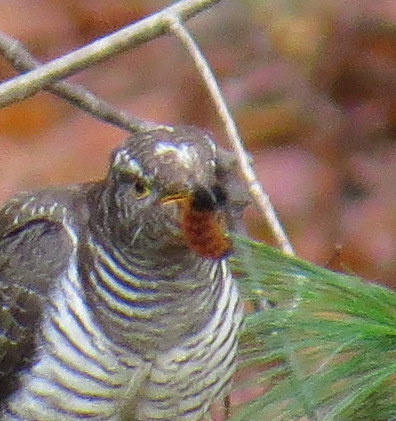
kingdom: Animalia
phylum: Arthropoda
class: Insecta
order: Lepidoptera
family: Erebidae
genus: Pyrrharctia
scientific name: Pyrrharctia isabella
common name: Isabella tiger moth
